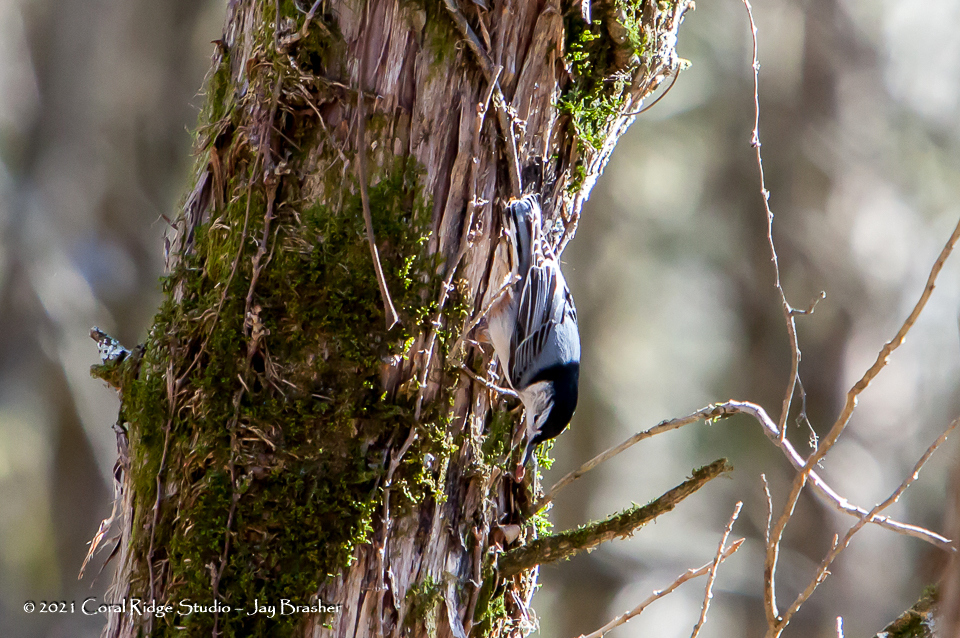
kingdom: Animalia
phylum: Chordata
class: Aves
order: Passeriformes
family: Sittidae
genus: Sitta
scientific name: Sitta carolinensis
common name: White-breasted nuthatch
